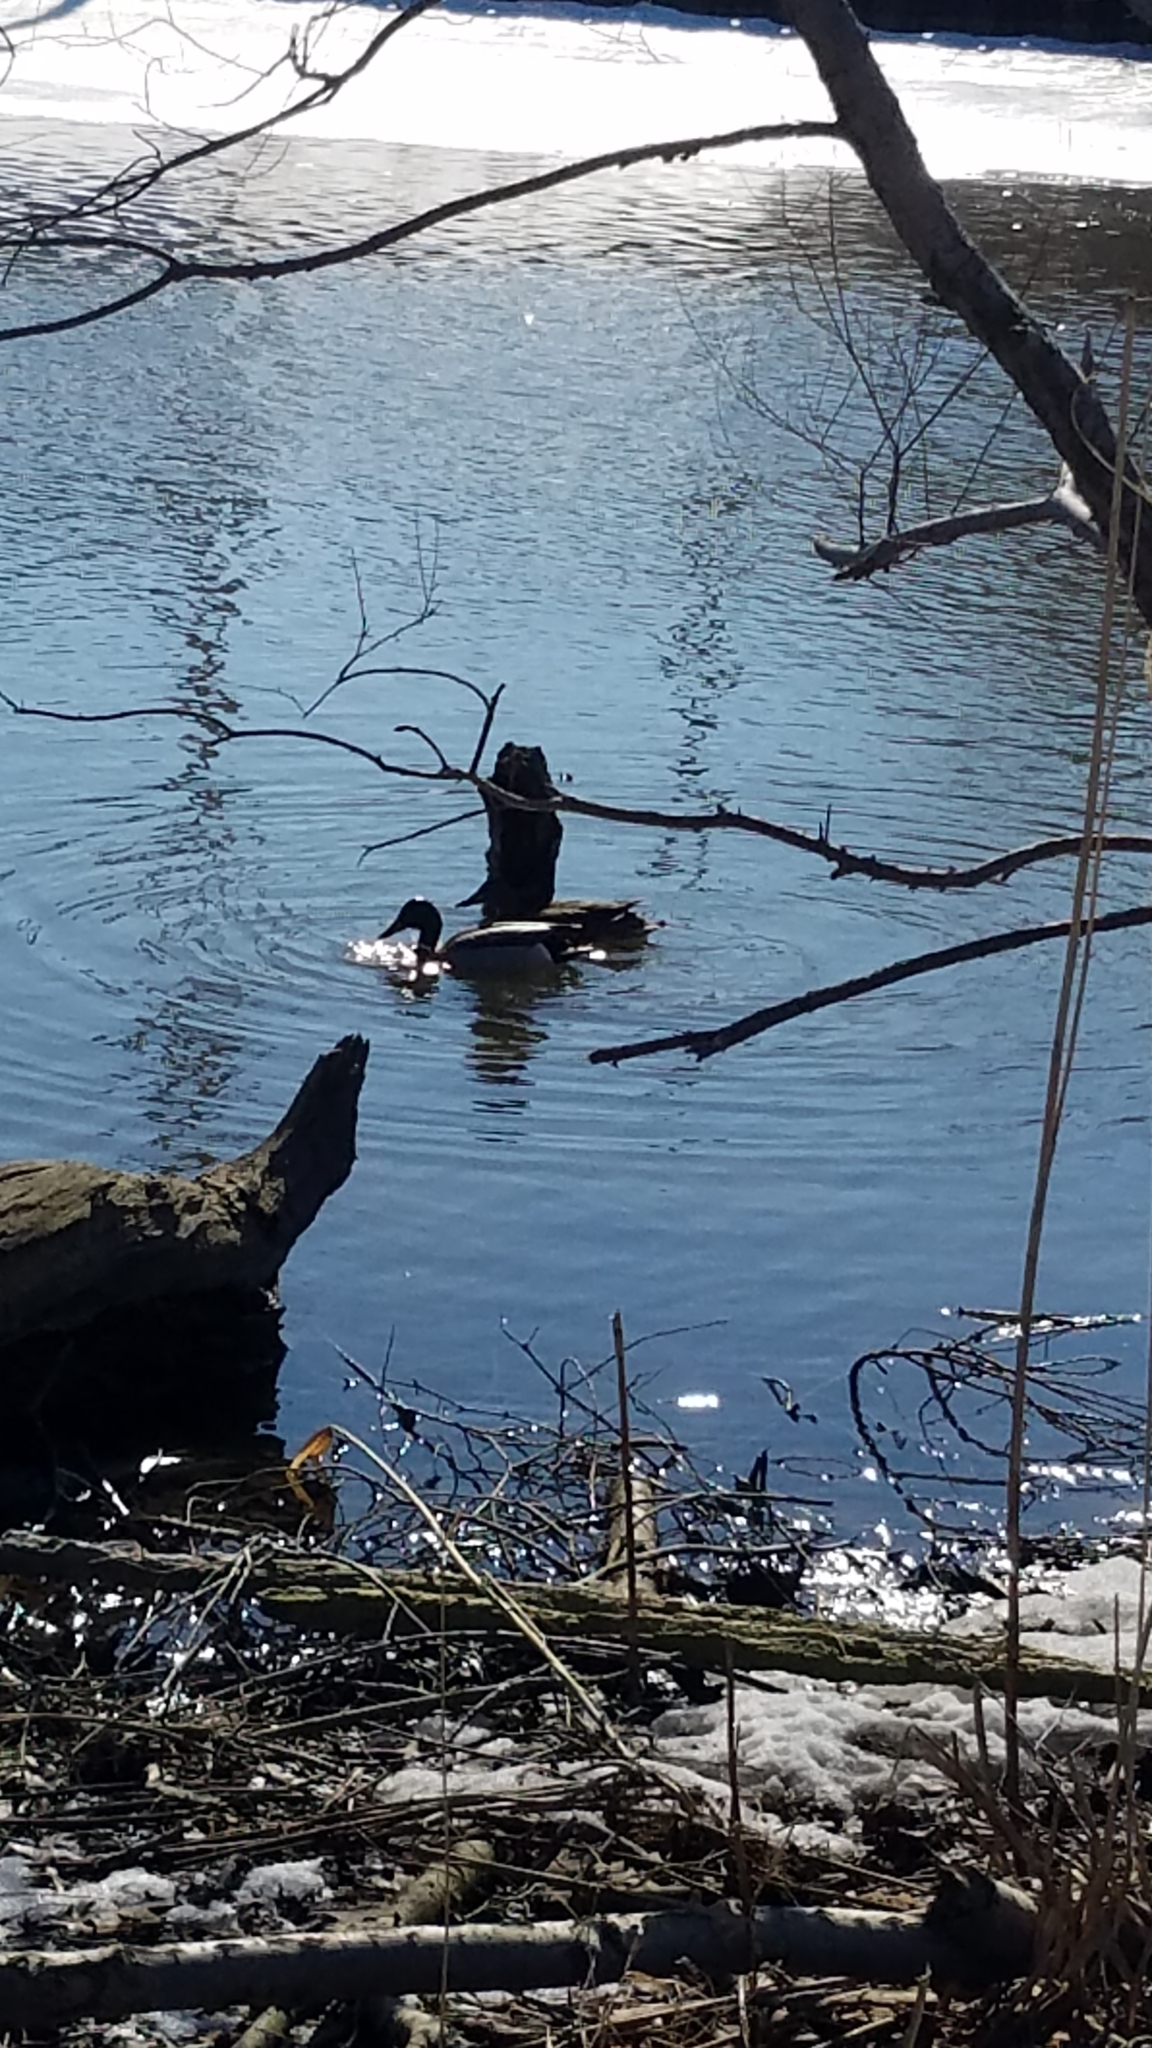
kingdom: Animalia
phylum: Chordata
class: Aves
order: Anseriformes
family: Anatidae
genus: Anas
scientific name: Anas platyrhynchos
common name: Mallard
